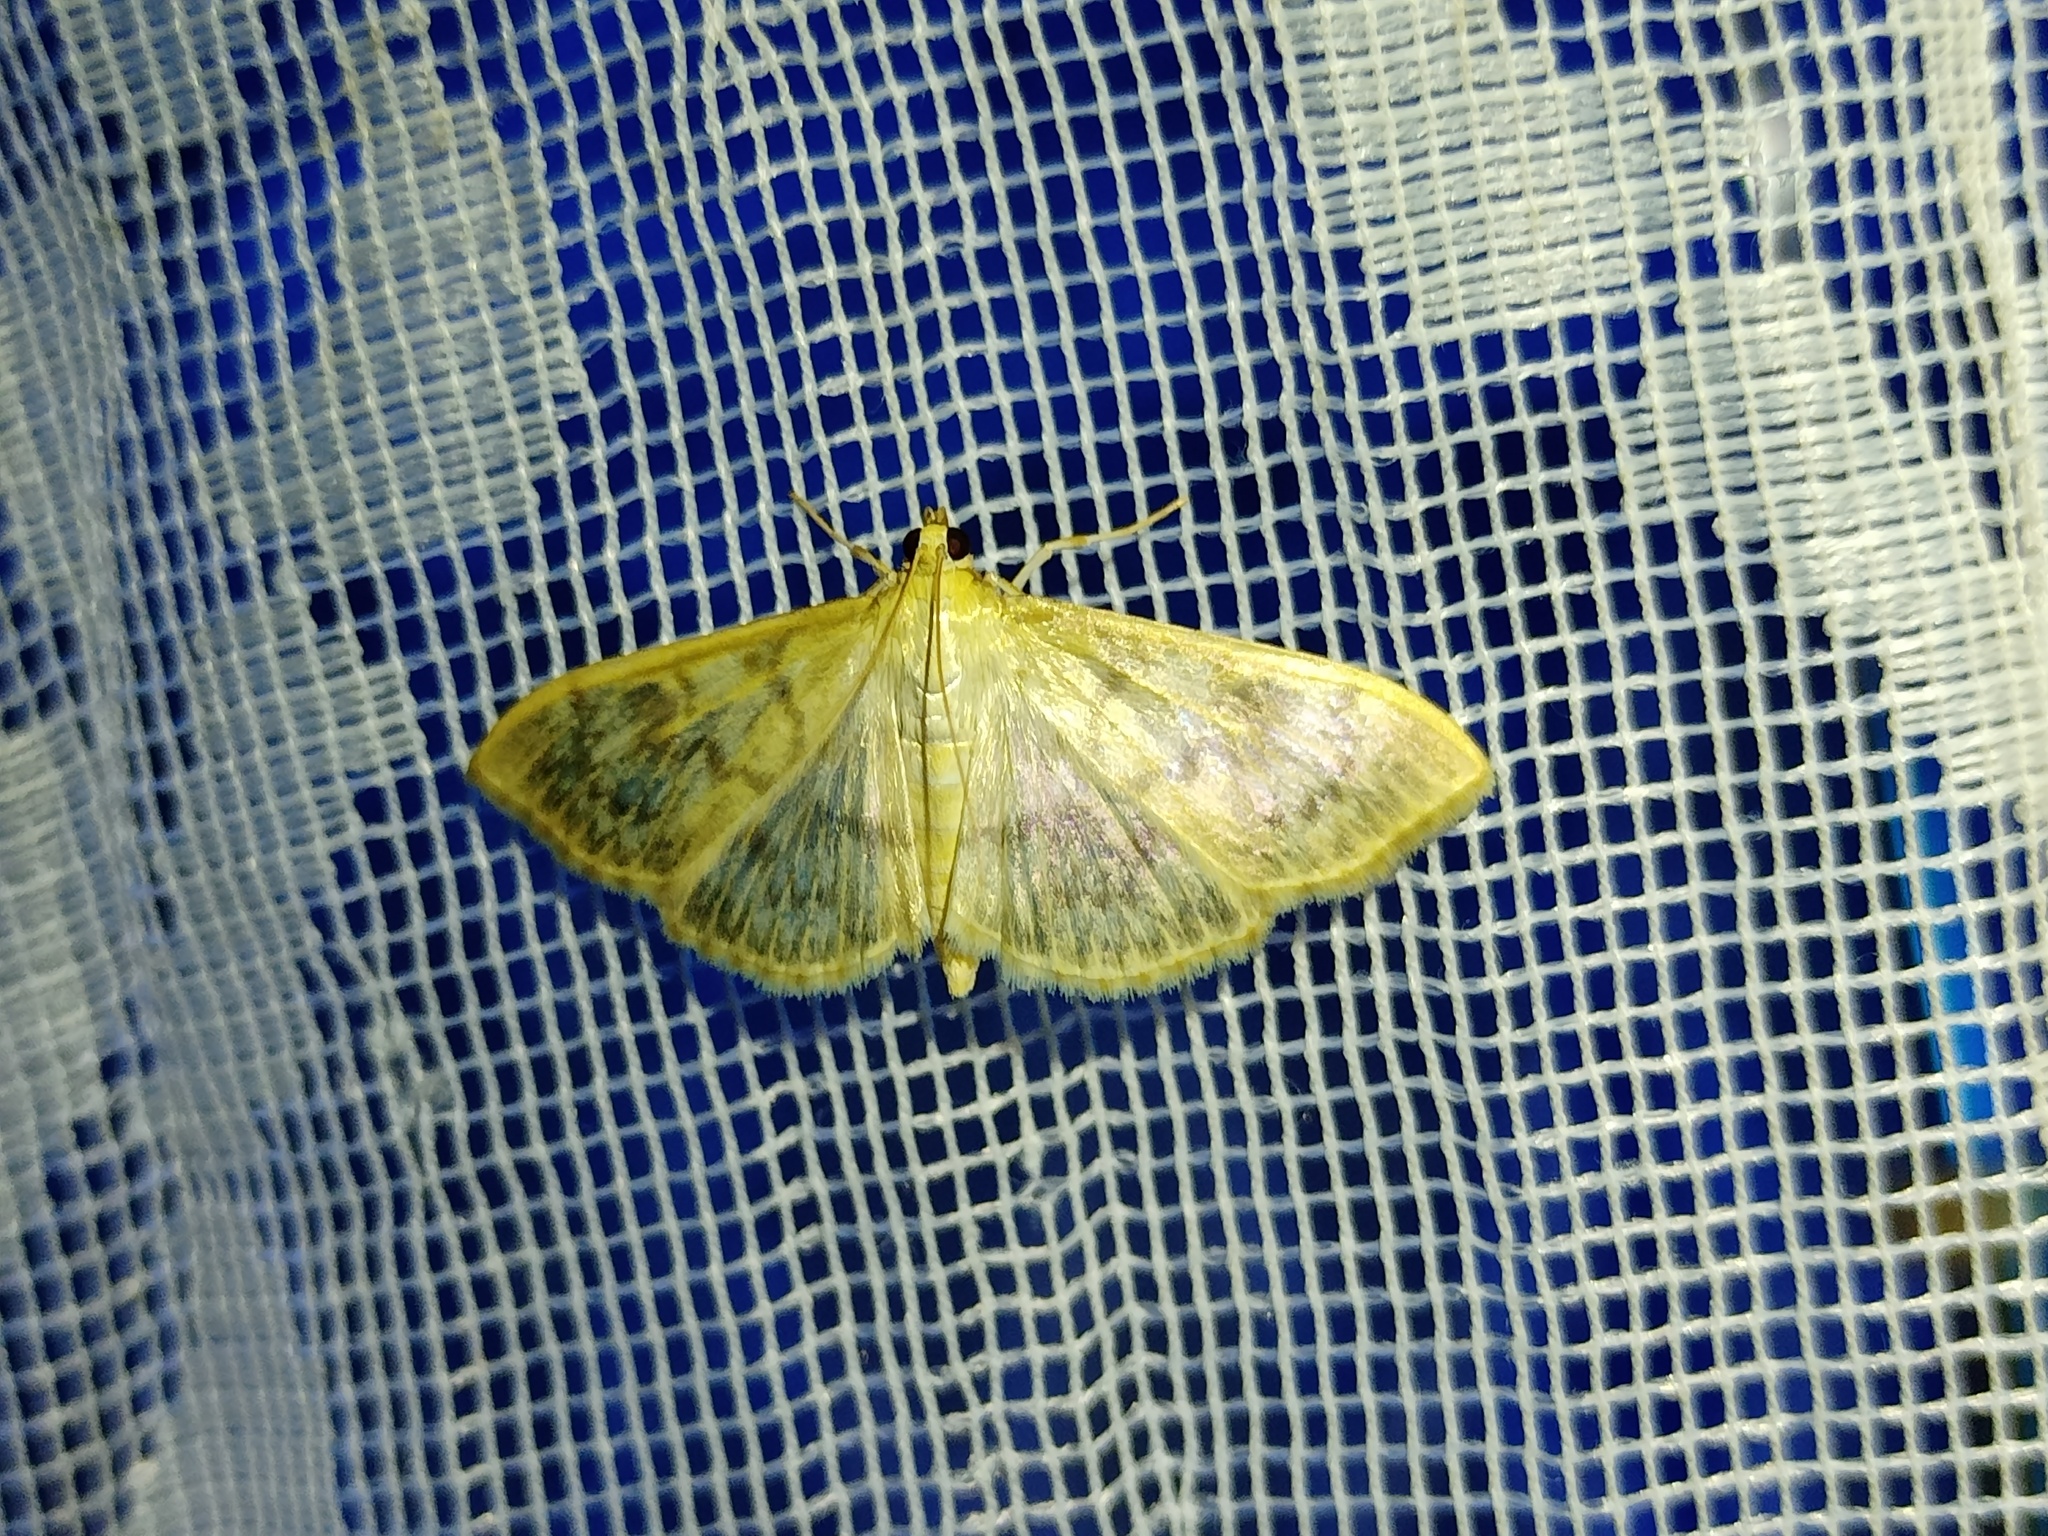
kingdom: Animalia
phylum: Arthropoda
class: Insecta
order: Lepidoptera
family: Crambidae
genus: Patania
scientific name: Patania ruralis
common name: Mother of pearl
